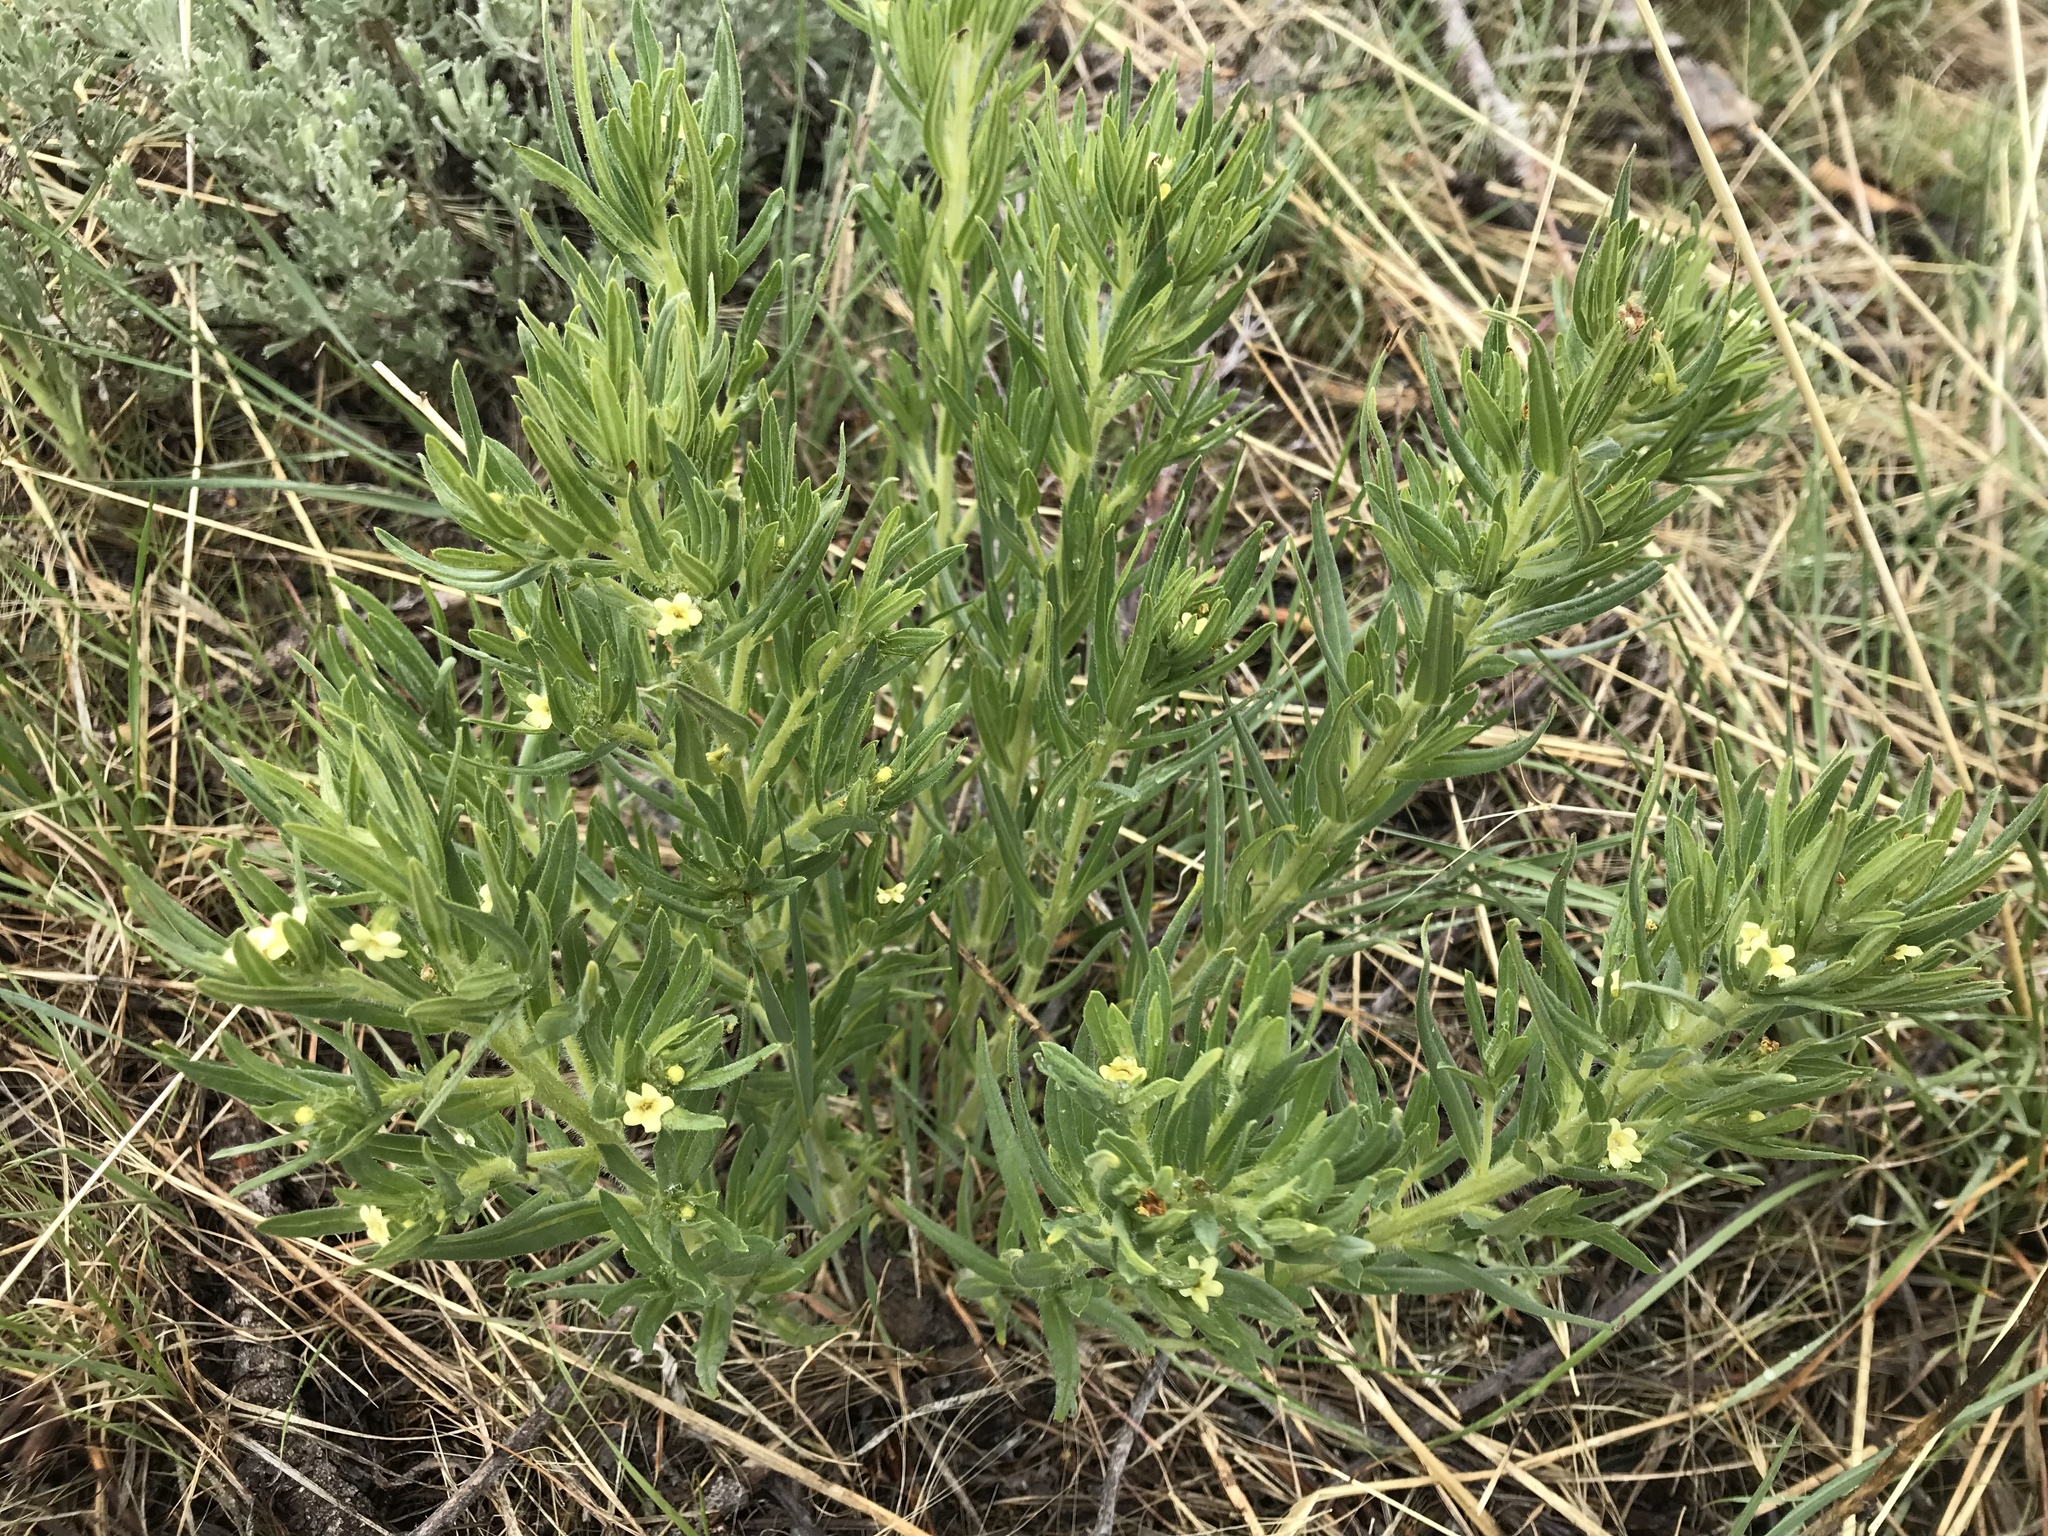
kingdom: Plantae
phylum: Tracheophyta
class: Magnoliopsida
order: Boraginales
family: Boraginaceae
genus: Lithospermum
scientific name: Lithospermum ruderale
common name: Western gromwell
